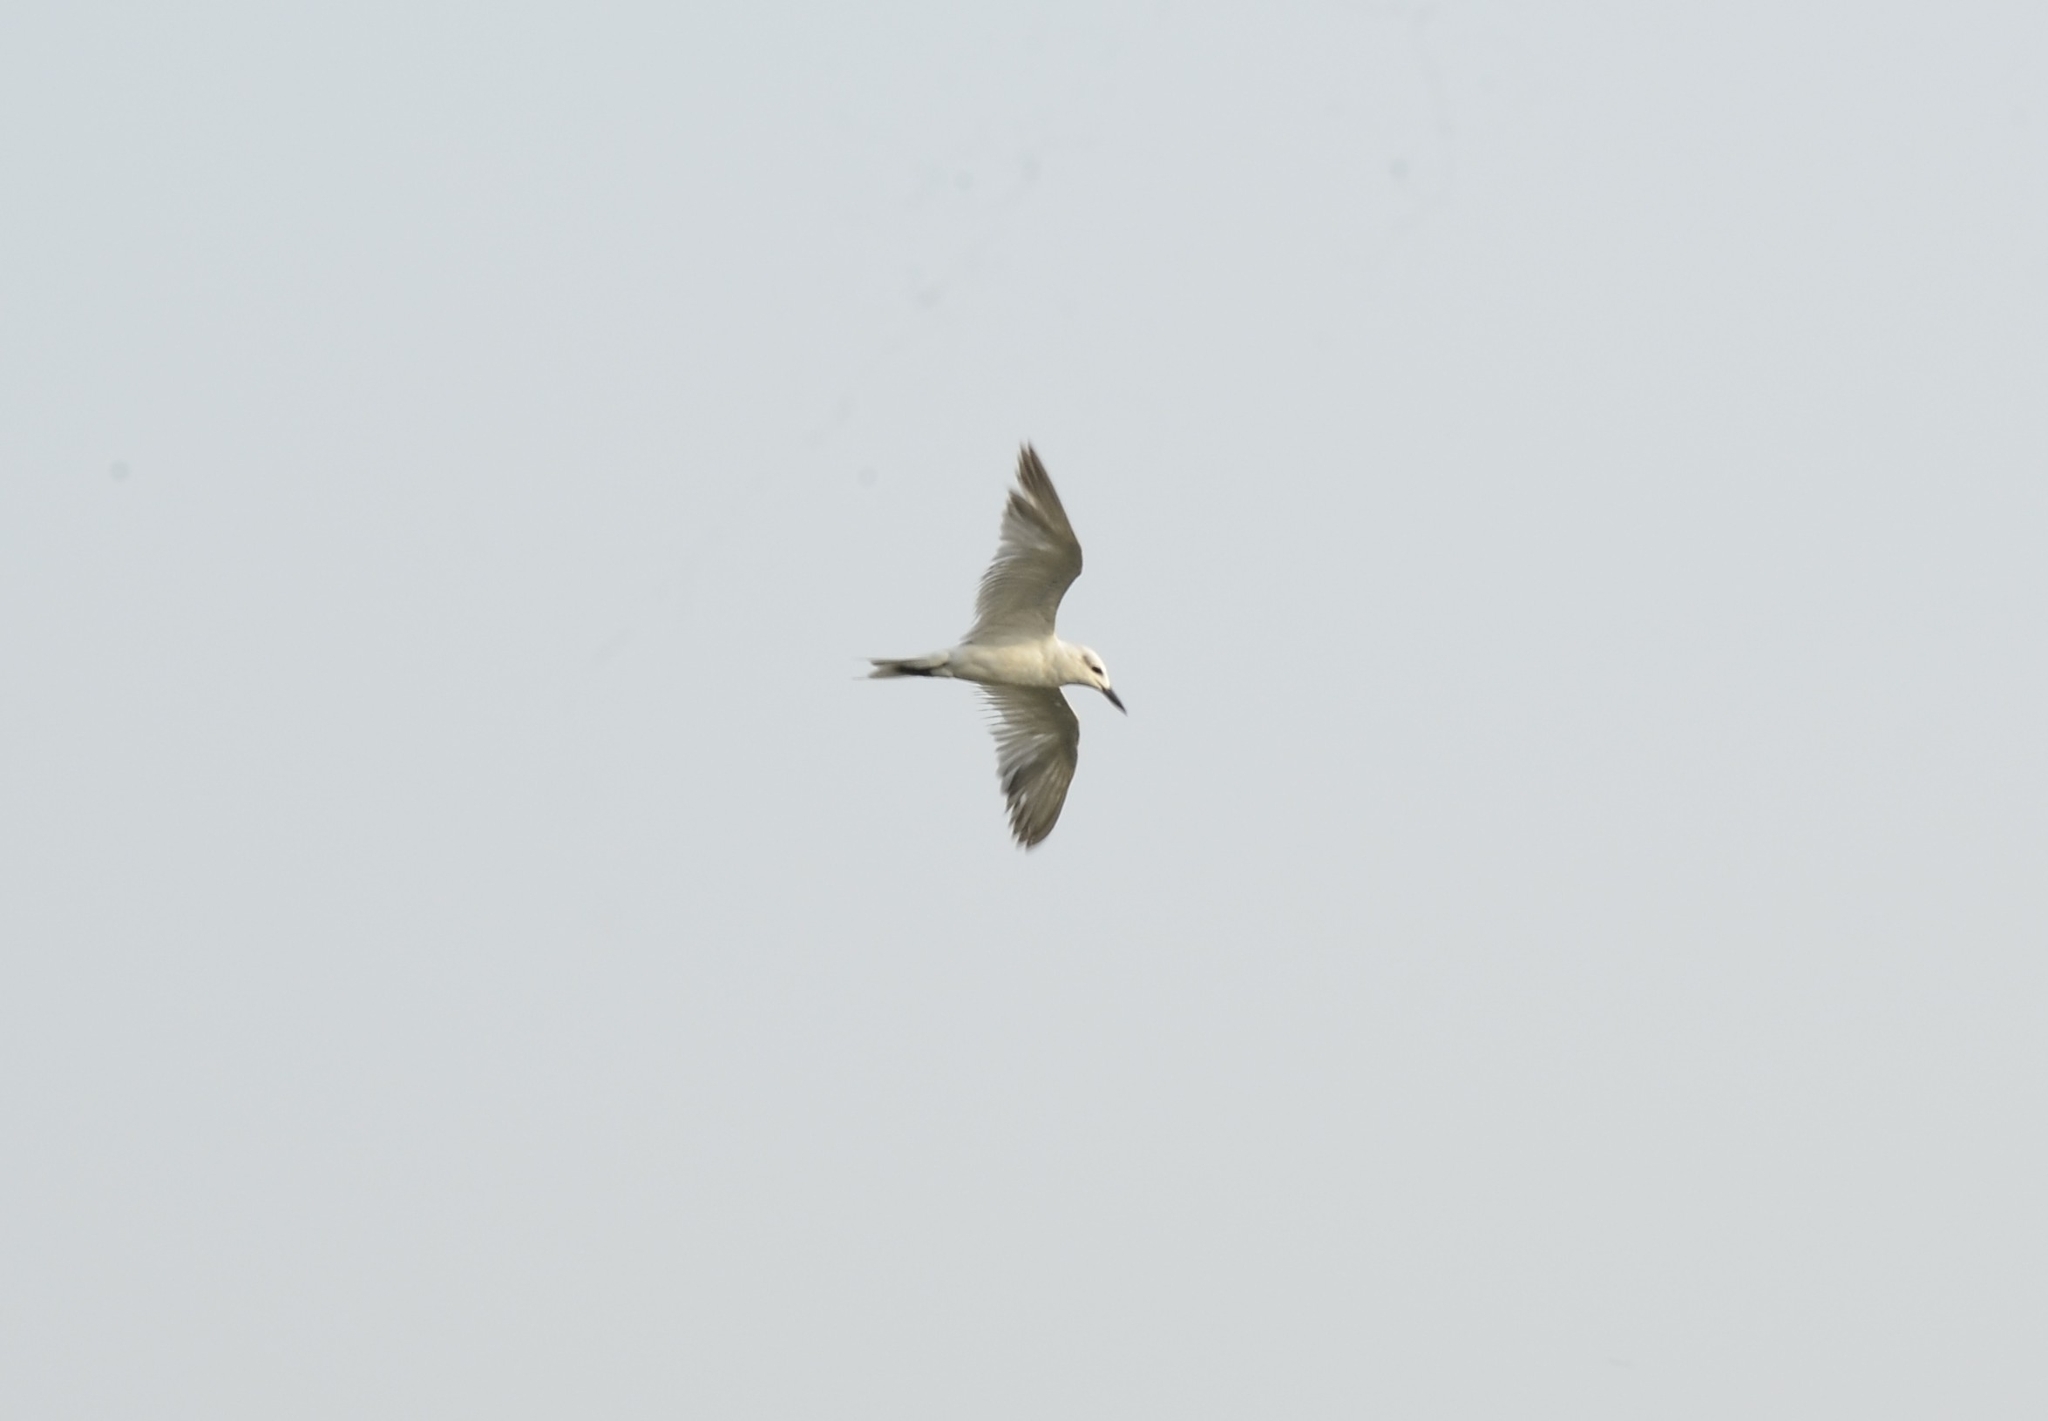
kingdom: Animalia
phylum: Chordata
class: Aves
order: Charadriiformes
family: Laridae
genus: Gelochelidon
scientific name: Gelochelidon nilotica
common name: Gull-billed tern
